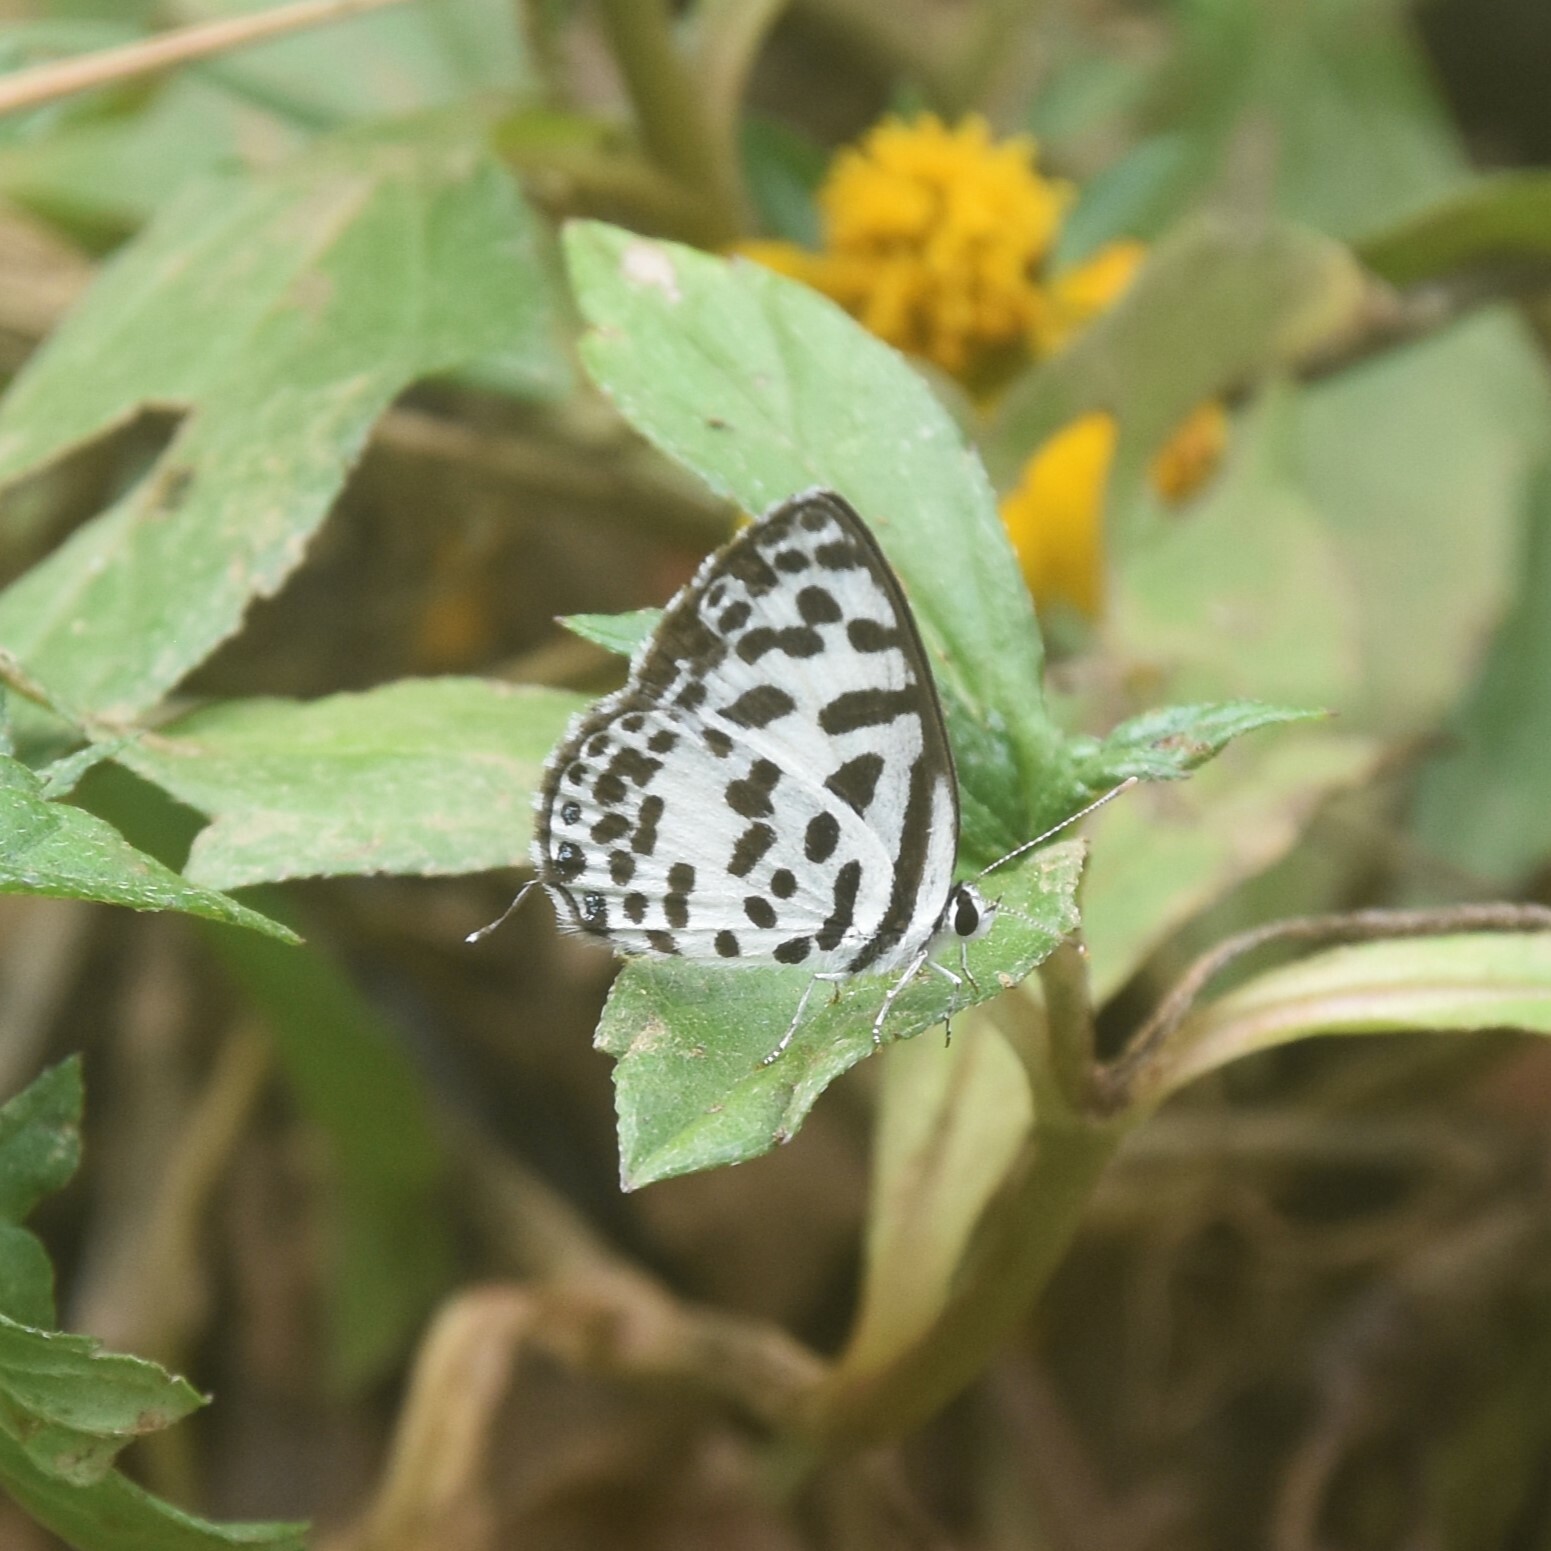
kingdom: Animalia
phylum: Arthropoda
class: Insecta
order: Lepidoptera
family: Lycaenidae
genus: Castalius
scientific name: Castalius rosimon
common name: Common pierrot
